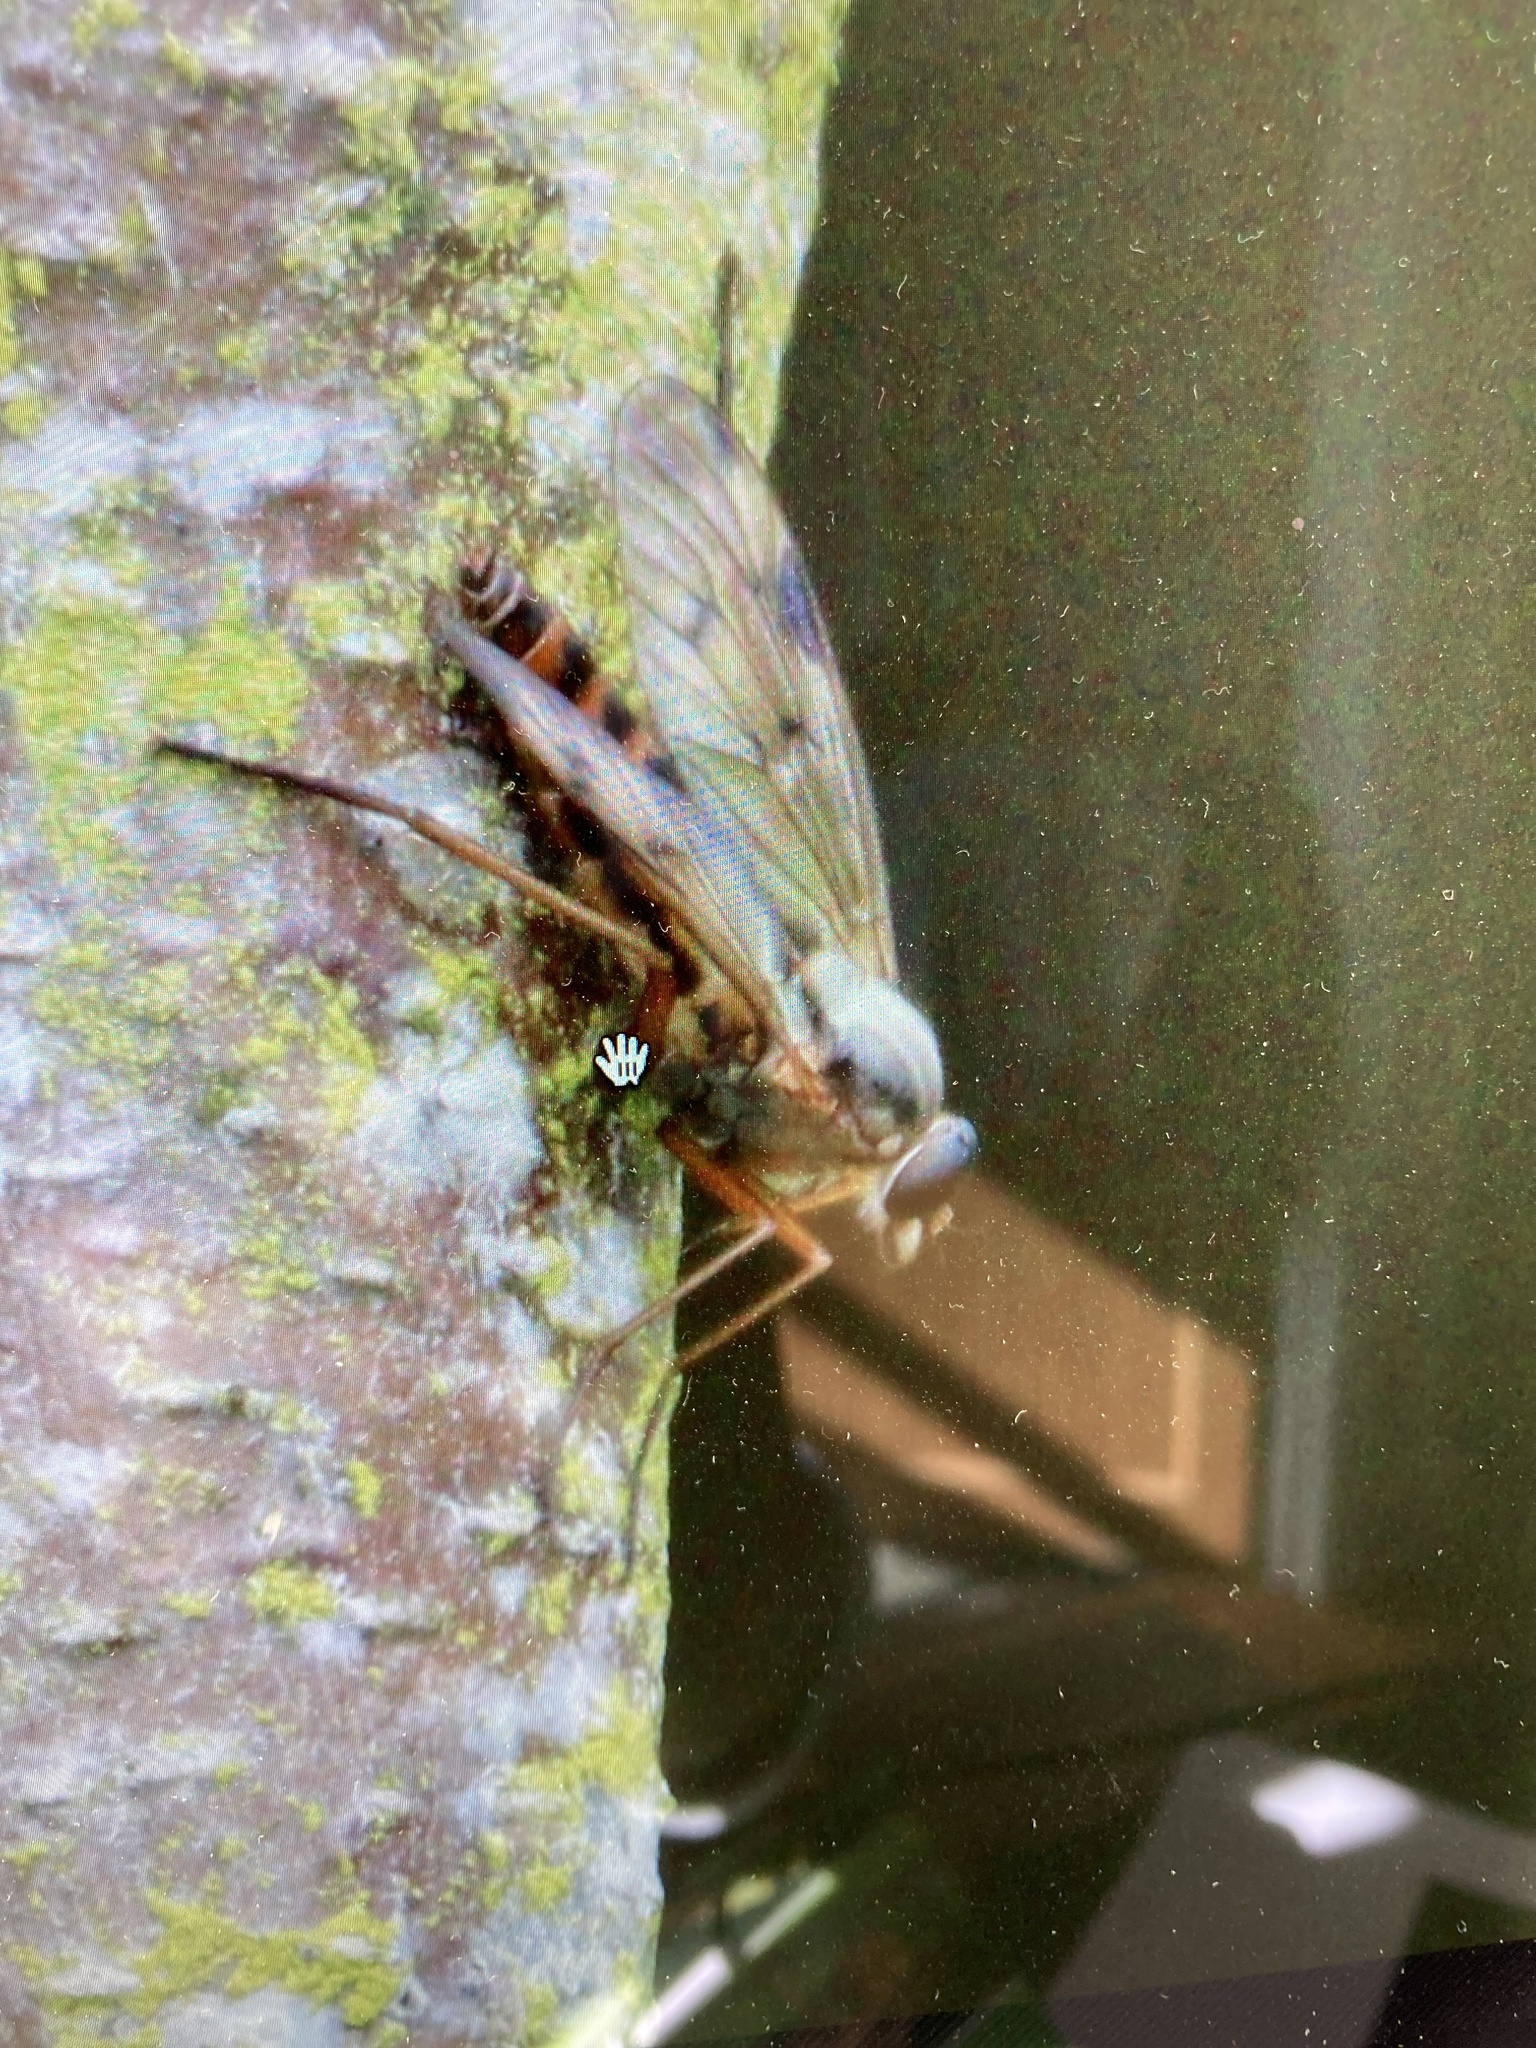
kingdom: Animalia
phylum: Arthropoda
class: Insecta
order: Diptera
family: Rhagionidae
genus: Rhagio
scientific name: Rhagio scolopacea
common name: Downlooker snipefly
